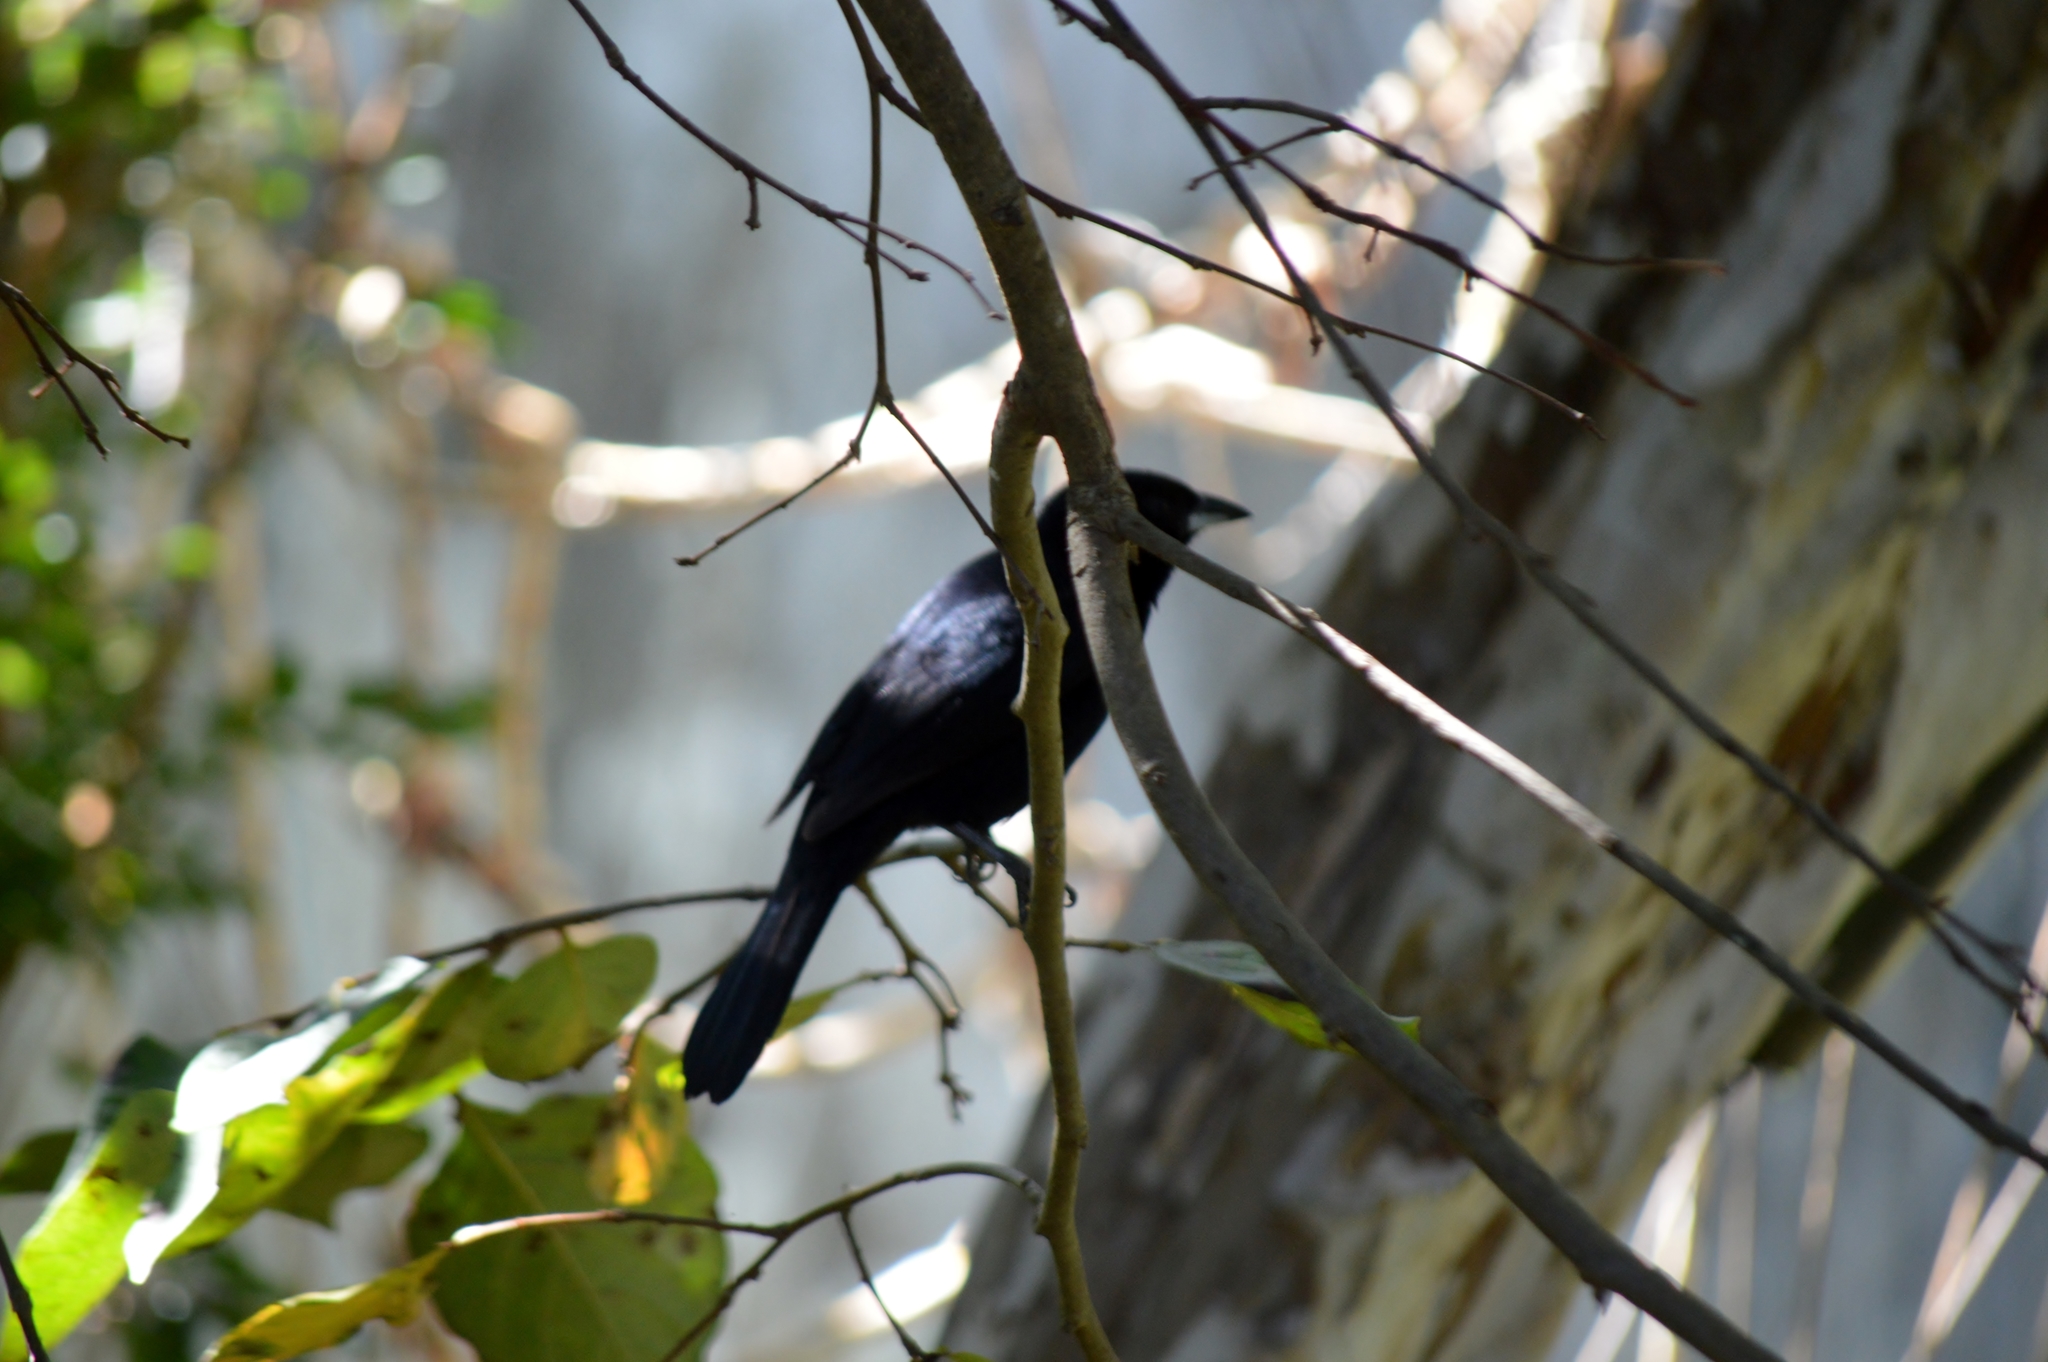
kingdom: Animalia
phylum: Chordata
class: Aves
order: Passeriformes
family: Thraupidae
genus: Tachyphonus
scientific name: Tachyphonus rufus
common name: White-lined tanager
